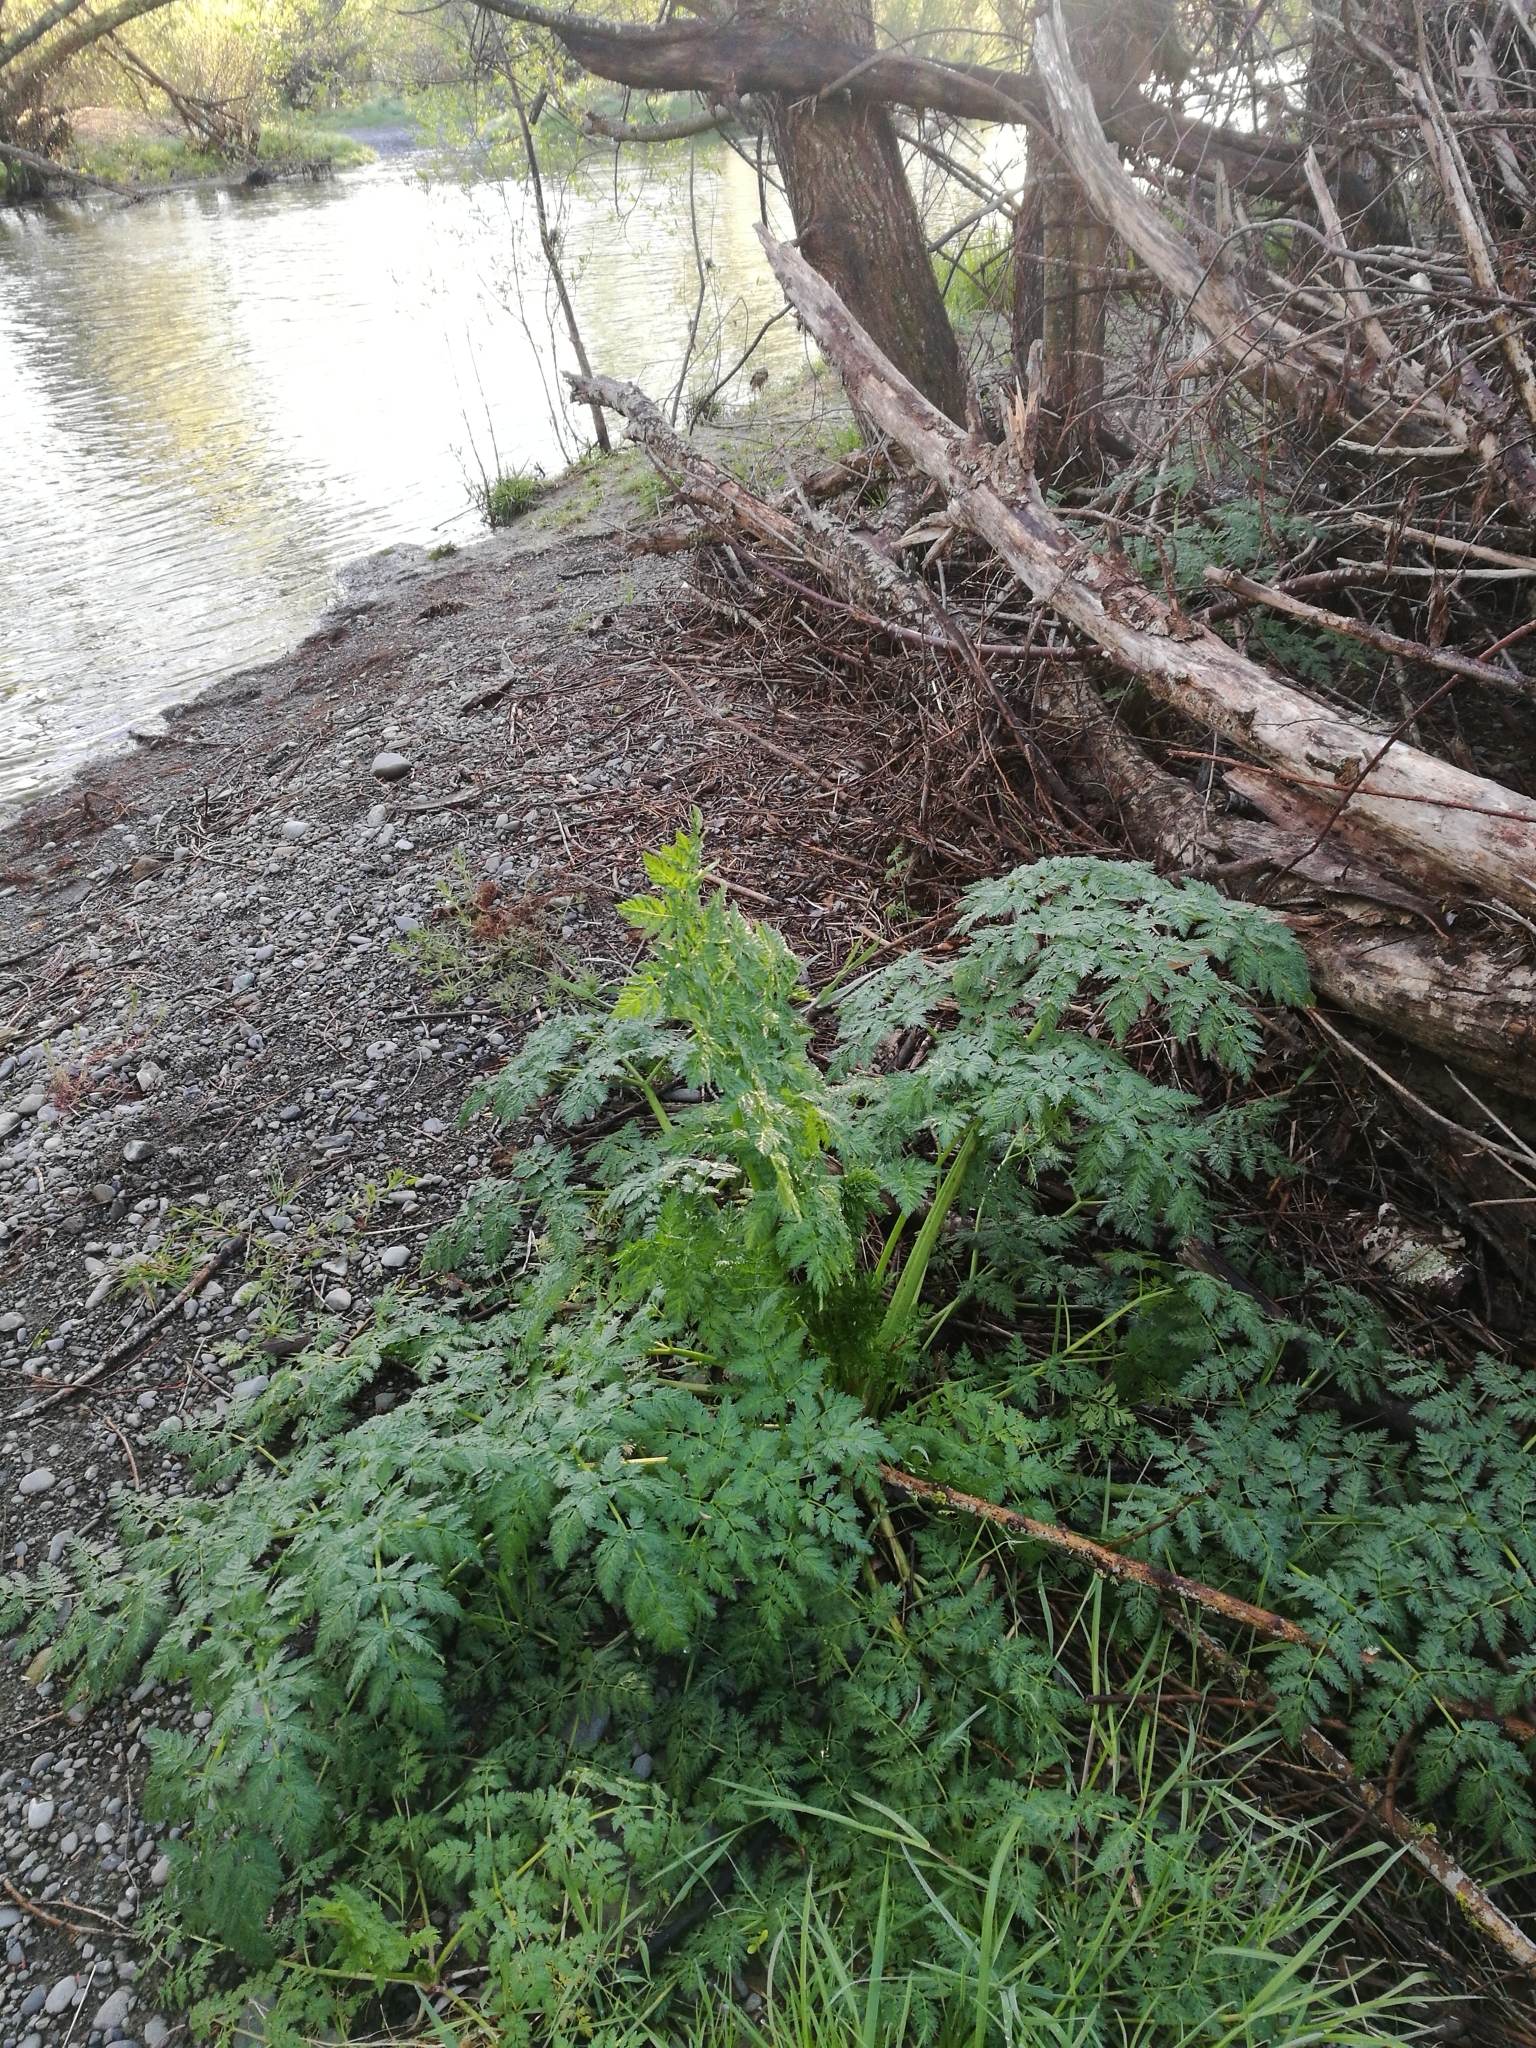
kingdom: Plantae
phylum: Tracheophyta
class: Magnoliopsida
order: Apiales
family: Apiaceae
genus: Conium
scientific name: Conium maculatum
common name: Hemlock
